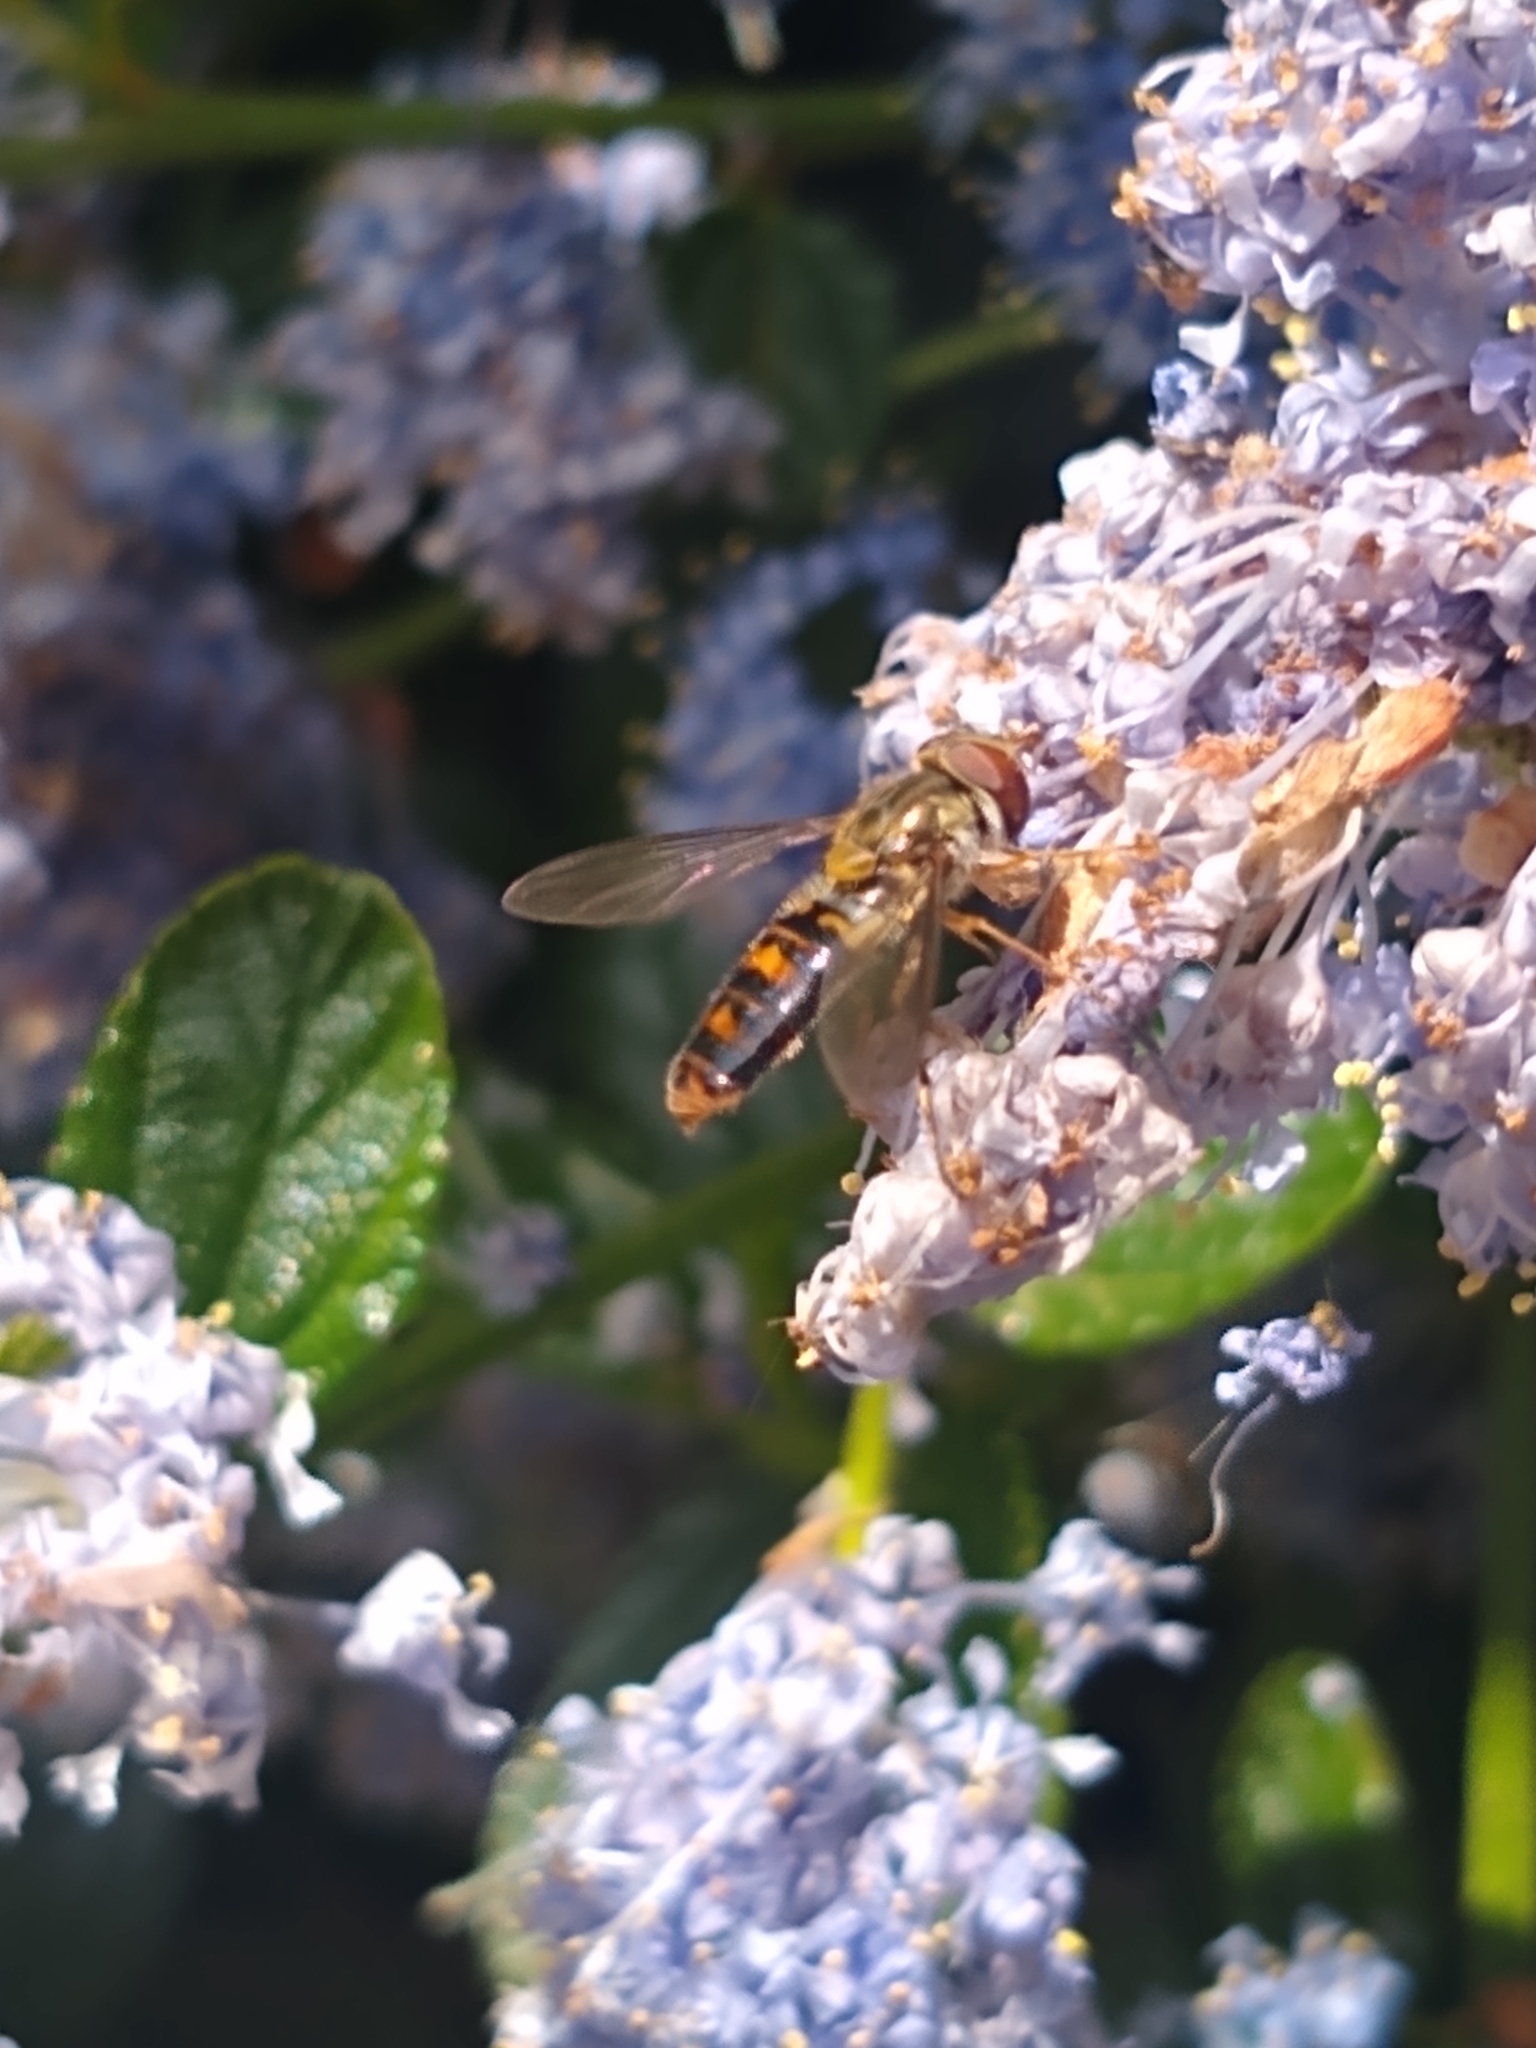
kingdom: Animalia
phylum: Arthropoda
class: Insecta
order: Diptera
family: Syrphidae
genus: Episyrphus
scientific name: Episyrphus balteatus
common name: Marmalade hoverfly
